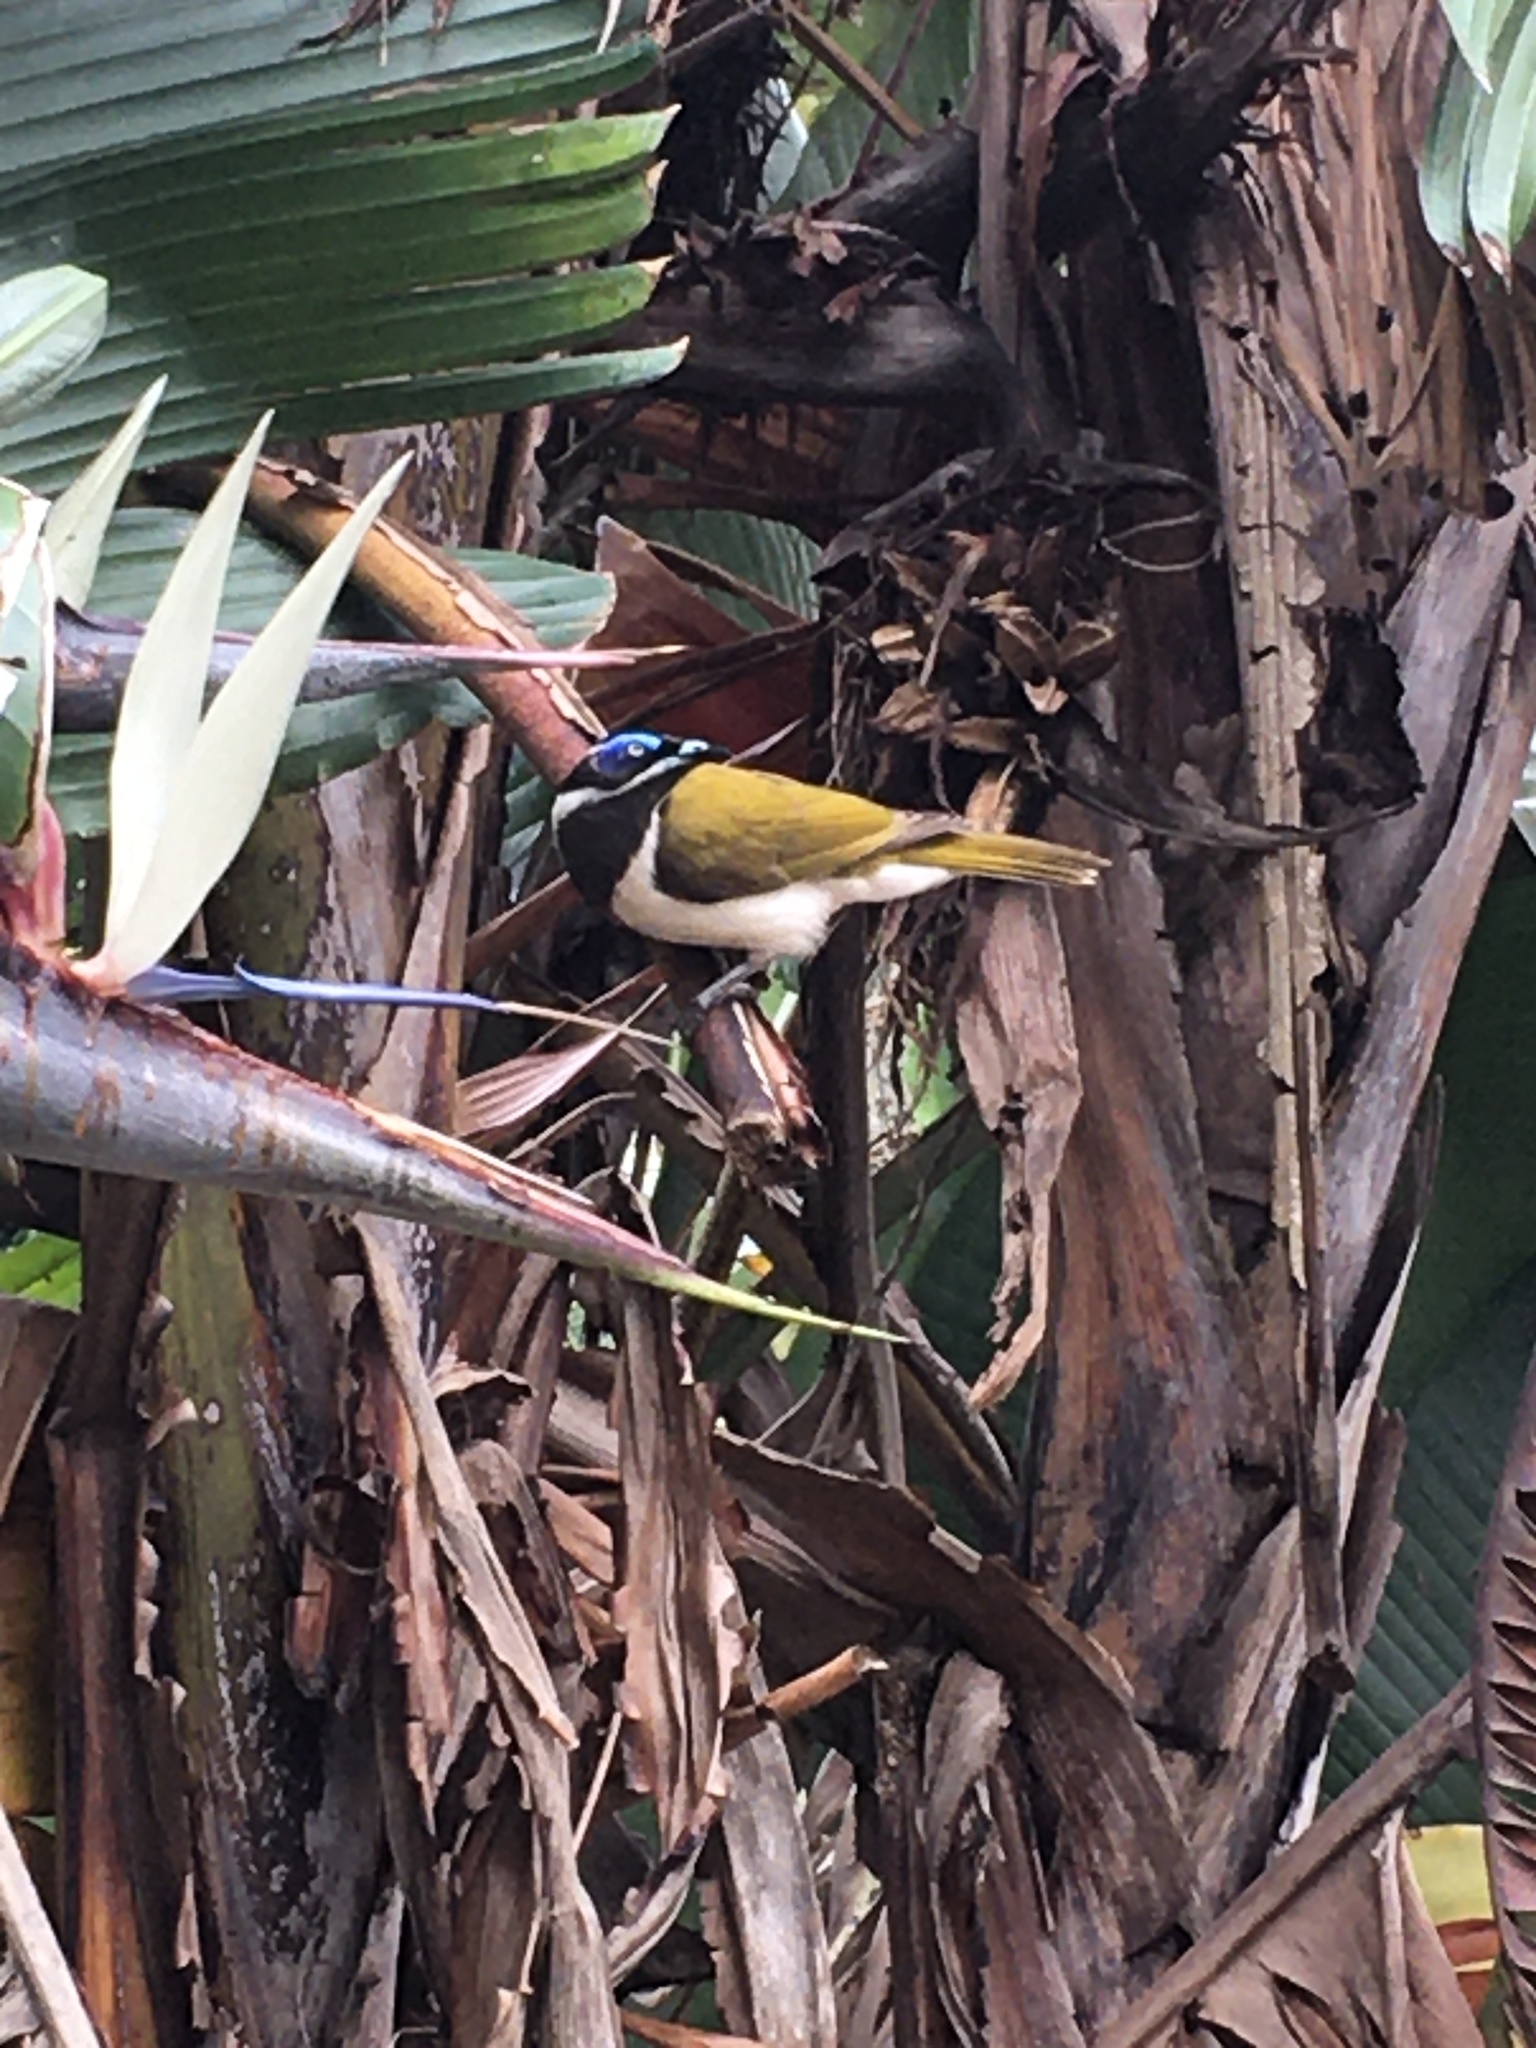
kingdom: Animalia
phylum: Chordata
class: Aves
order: Passeriformes
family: Meliphagidae
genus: Entomyzon
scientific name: Entomyzon cyanotis
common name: Blue-faced honeyeater
